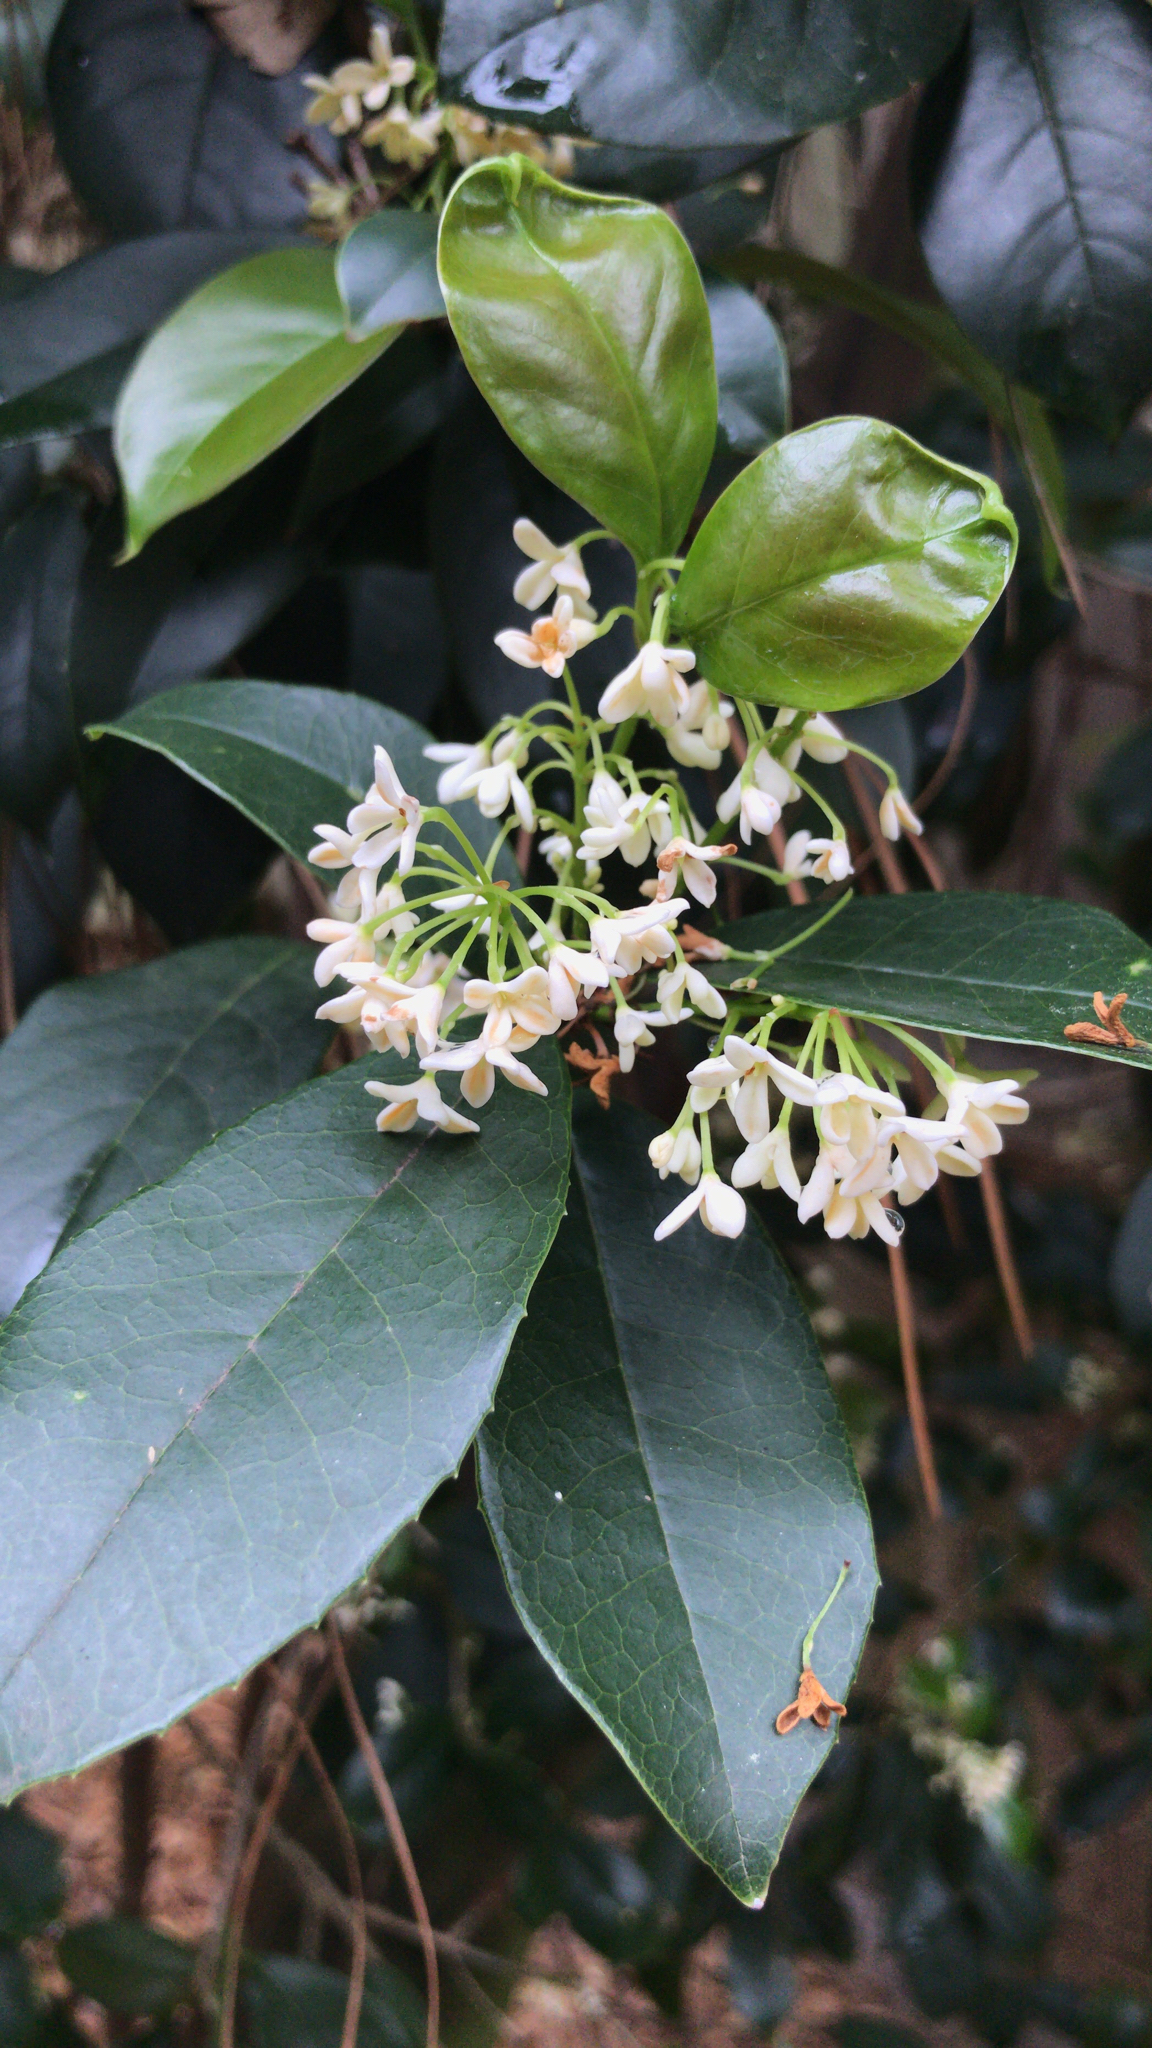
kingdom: Plantae
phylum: Tracheophyta
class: Magnoliopsida
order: Lamiales
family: Oleaceae
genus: Osmanthus
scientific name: Osmanthus fragrans
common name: Sweet osmanthus
